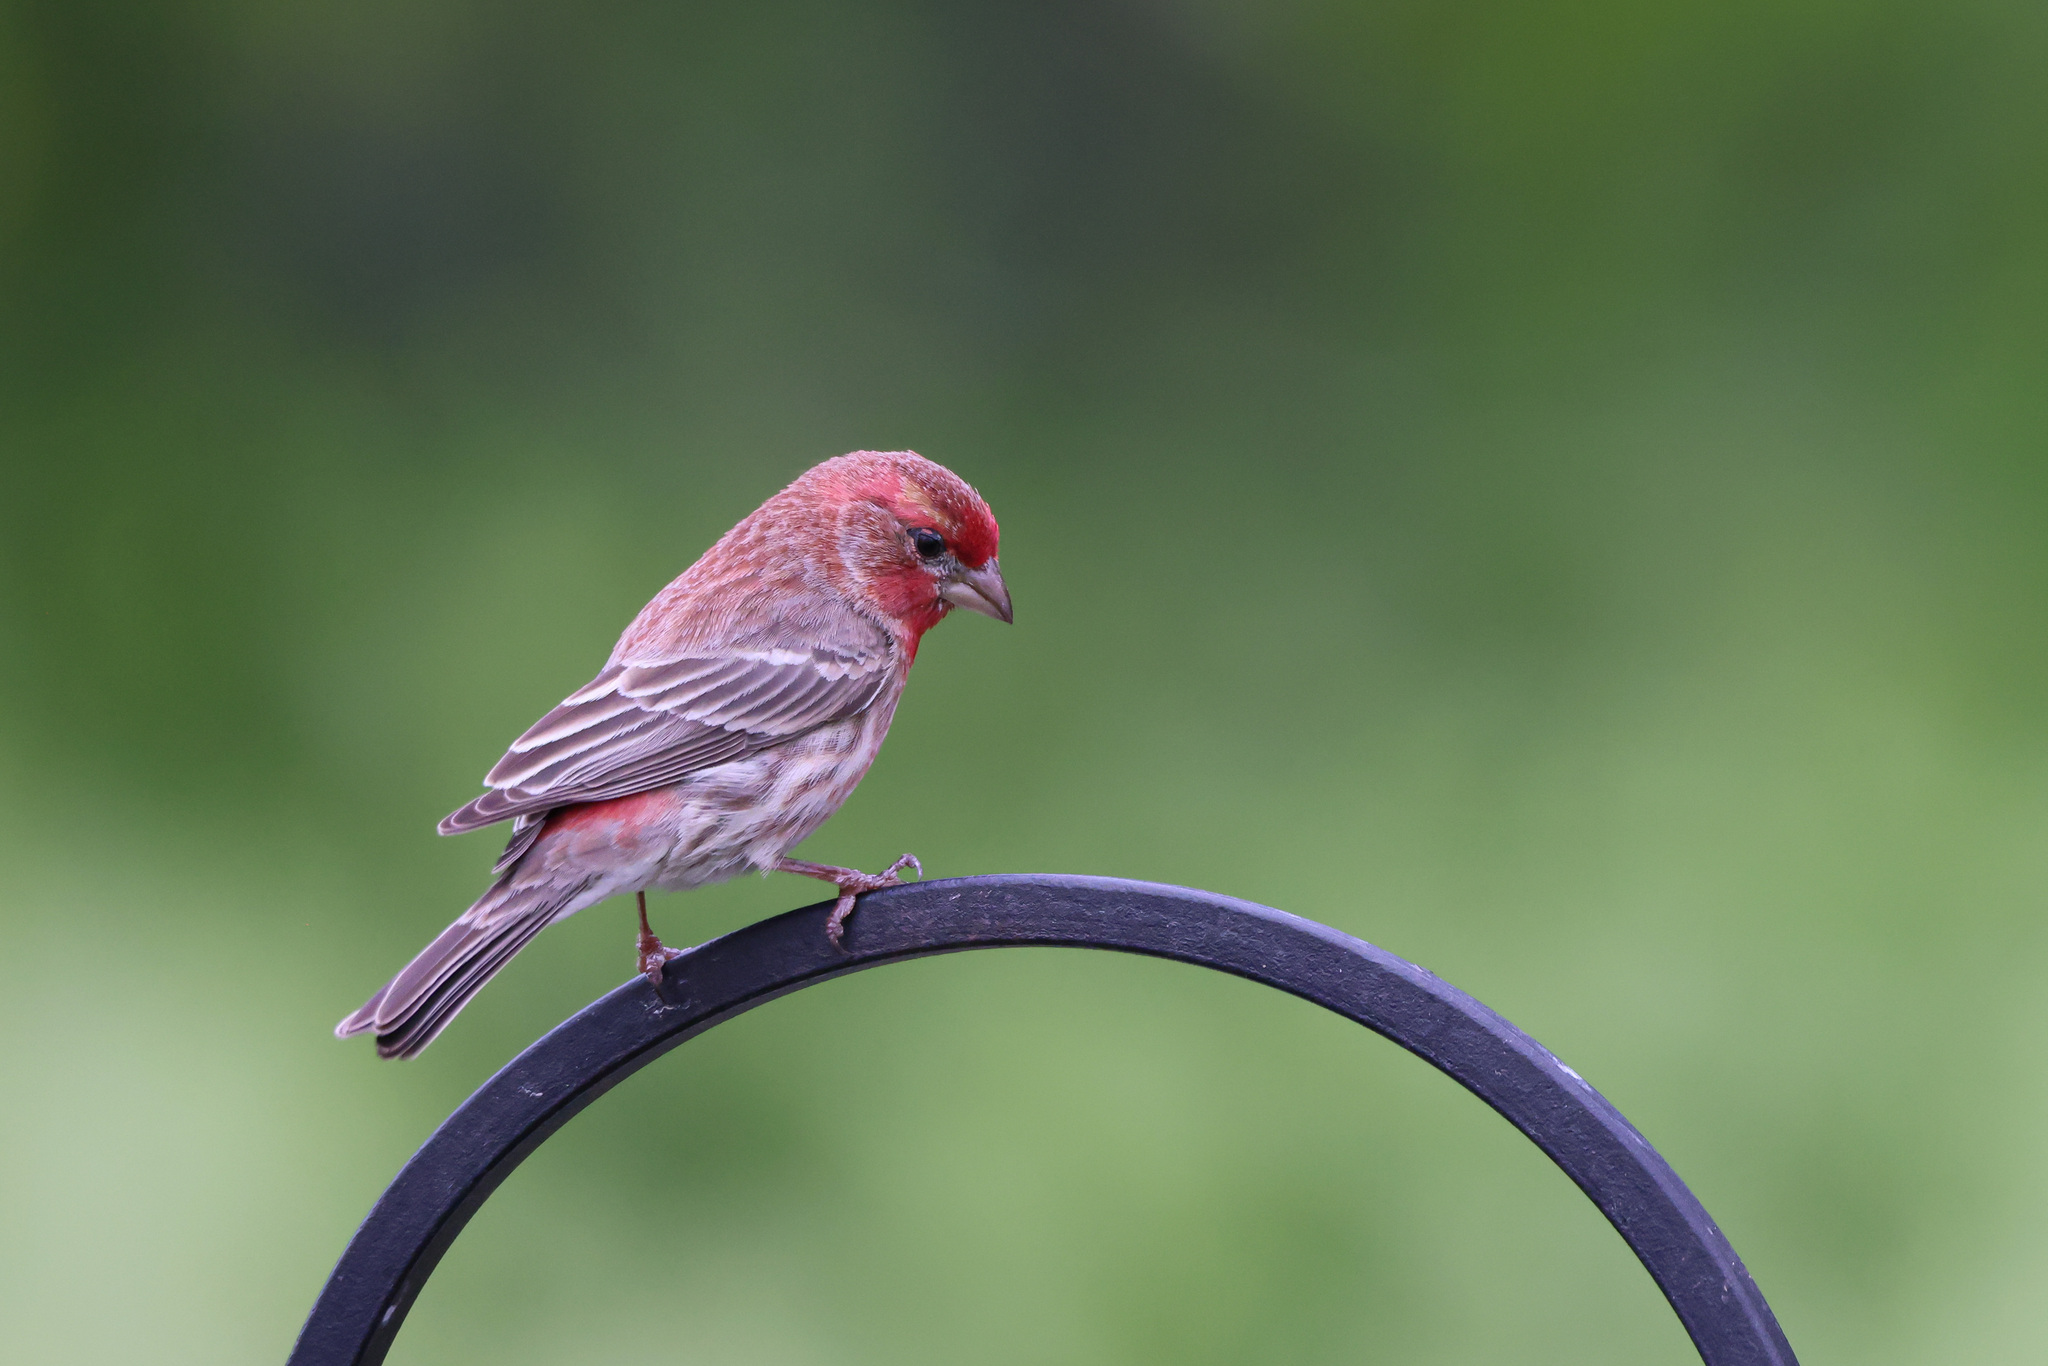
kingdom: Animalia
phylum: Chordata
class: Aves
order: Passeriformes
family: Fringillidae
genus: Haemorhous
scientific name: Haemorhous mexicanus
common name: House finch
